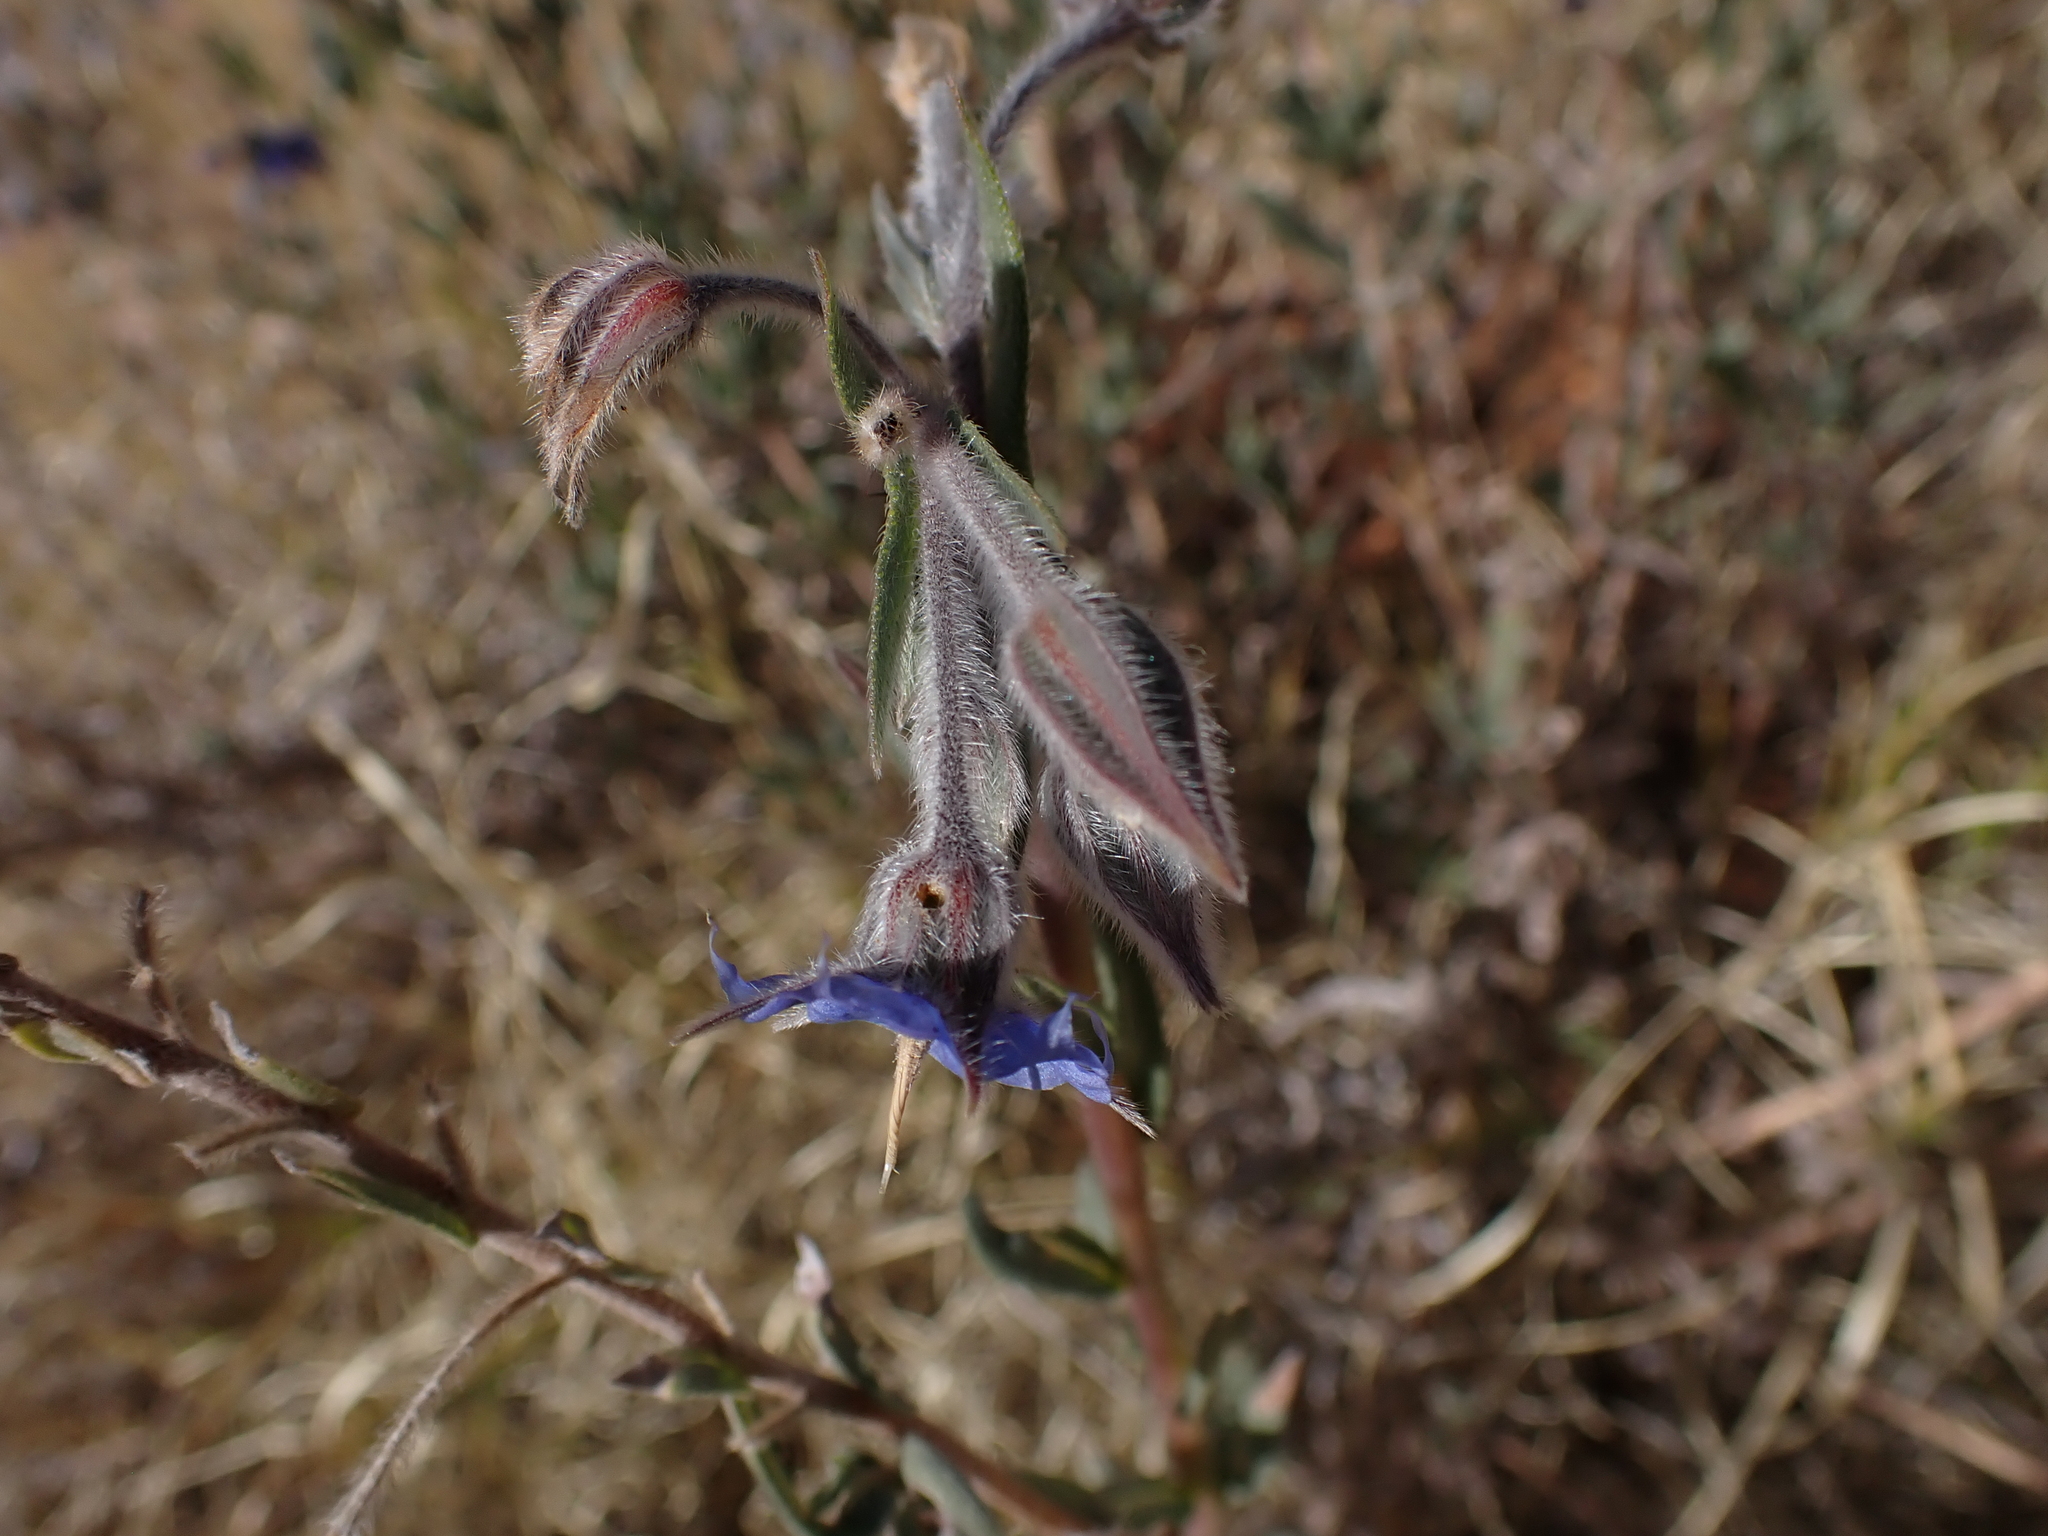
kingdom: Plantae
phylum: Tracheophyta
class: Magnoliopsida
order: Boraginales
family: Boraginaceae
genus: Trichodesma
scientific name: Trichodesma zeylanicum
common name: Camelbush
